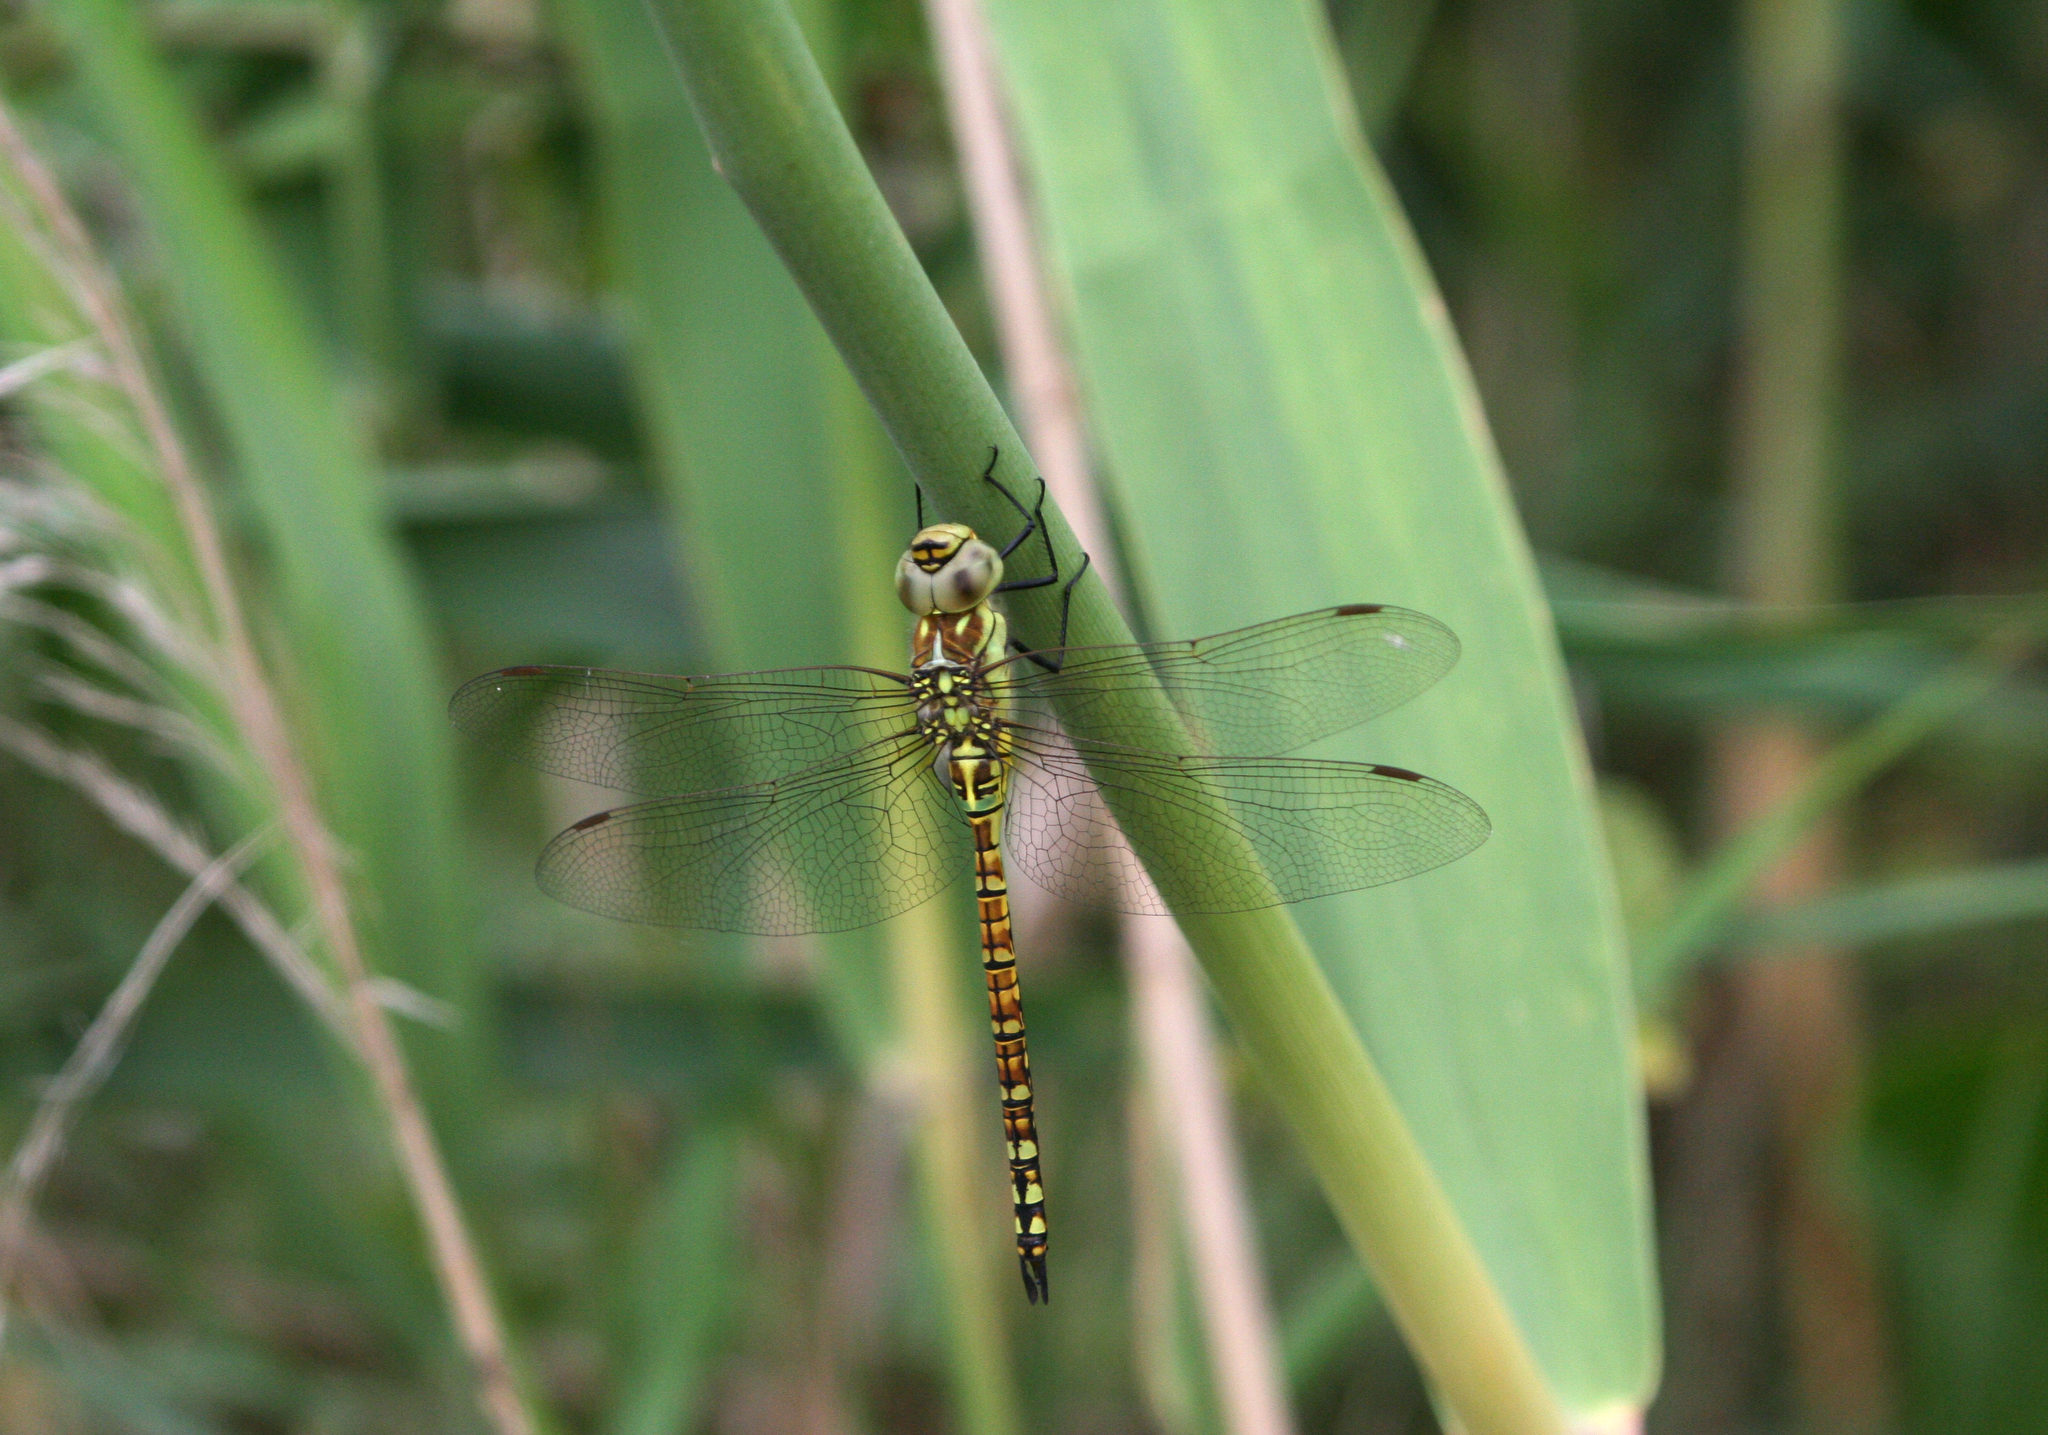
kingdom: Animalia
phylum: Arthropoda
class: Insecta
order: Odonata
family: Aeshnidae
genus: Aeshna
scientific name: Aeshna affinis
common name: Southern migrant hawker
